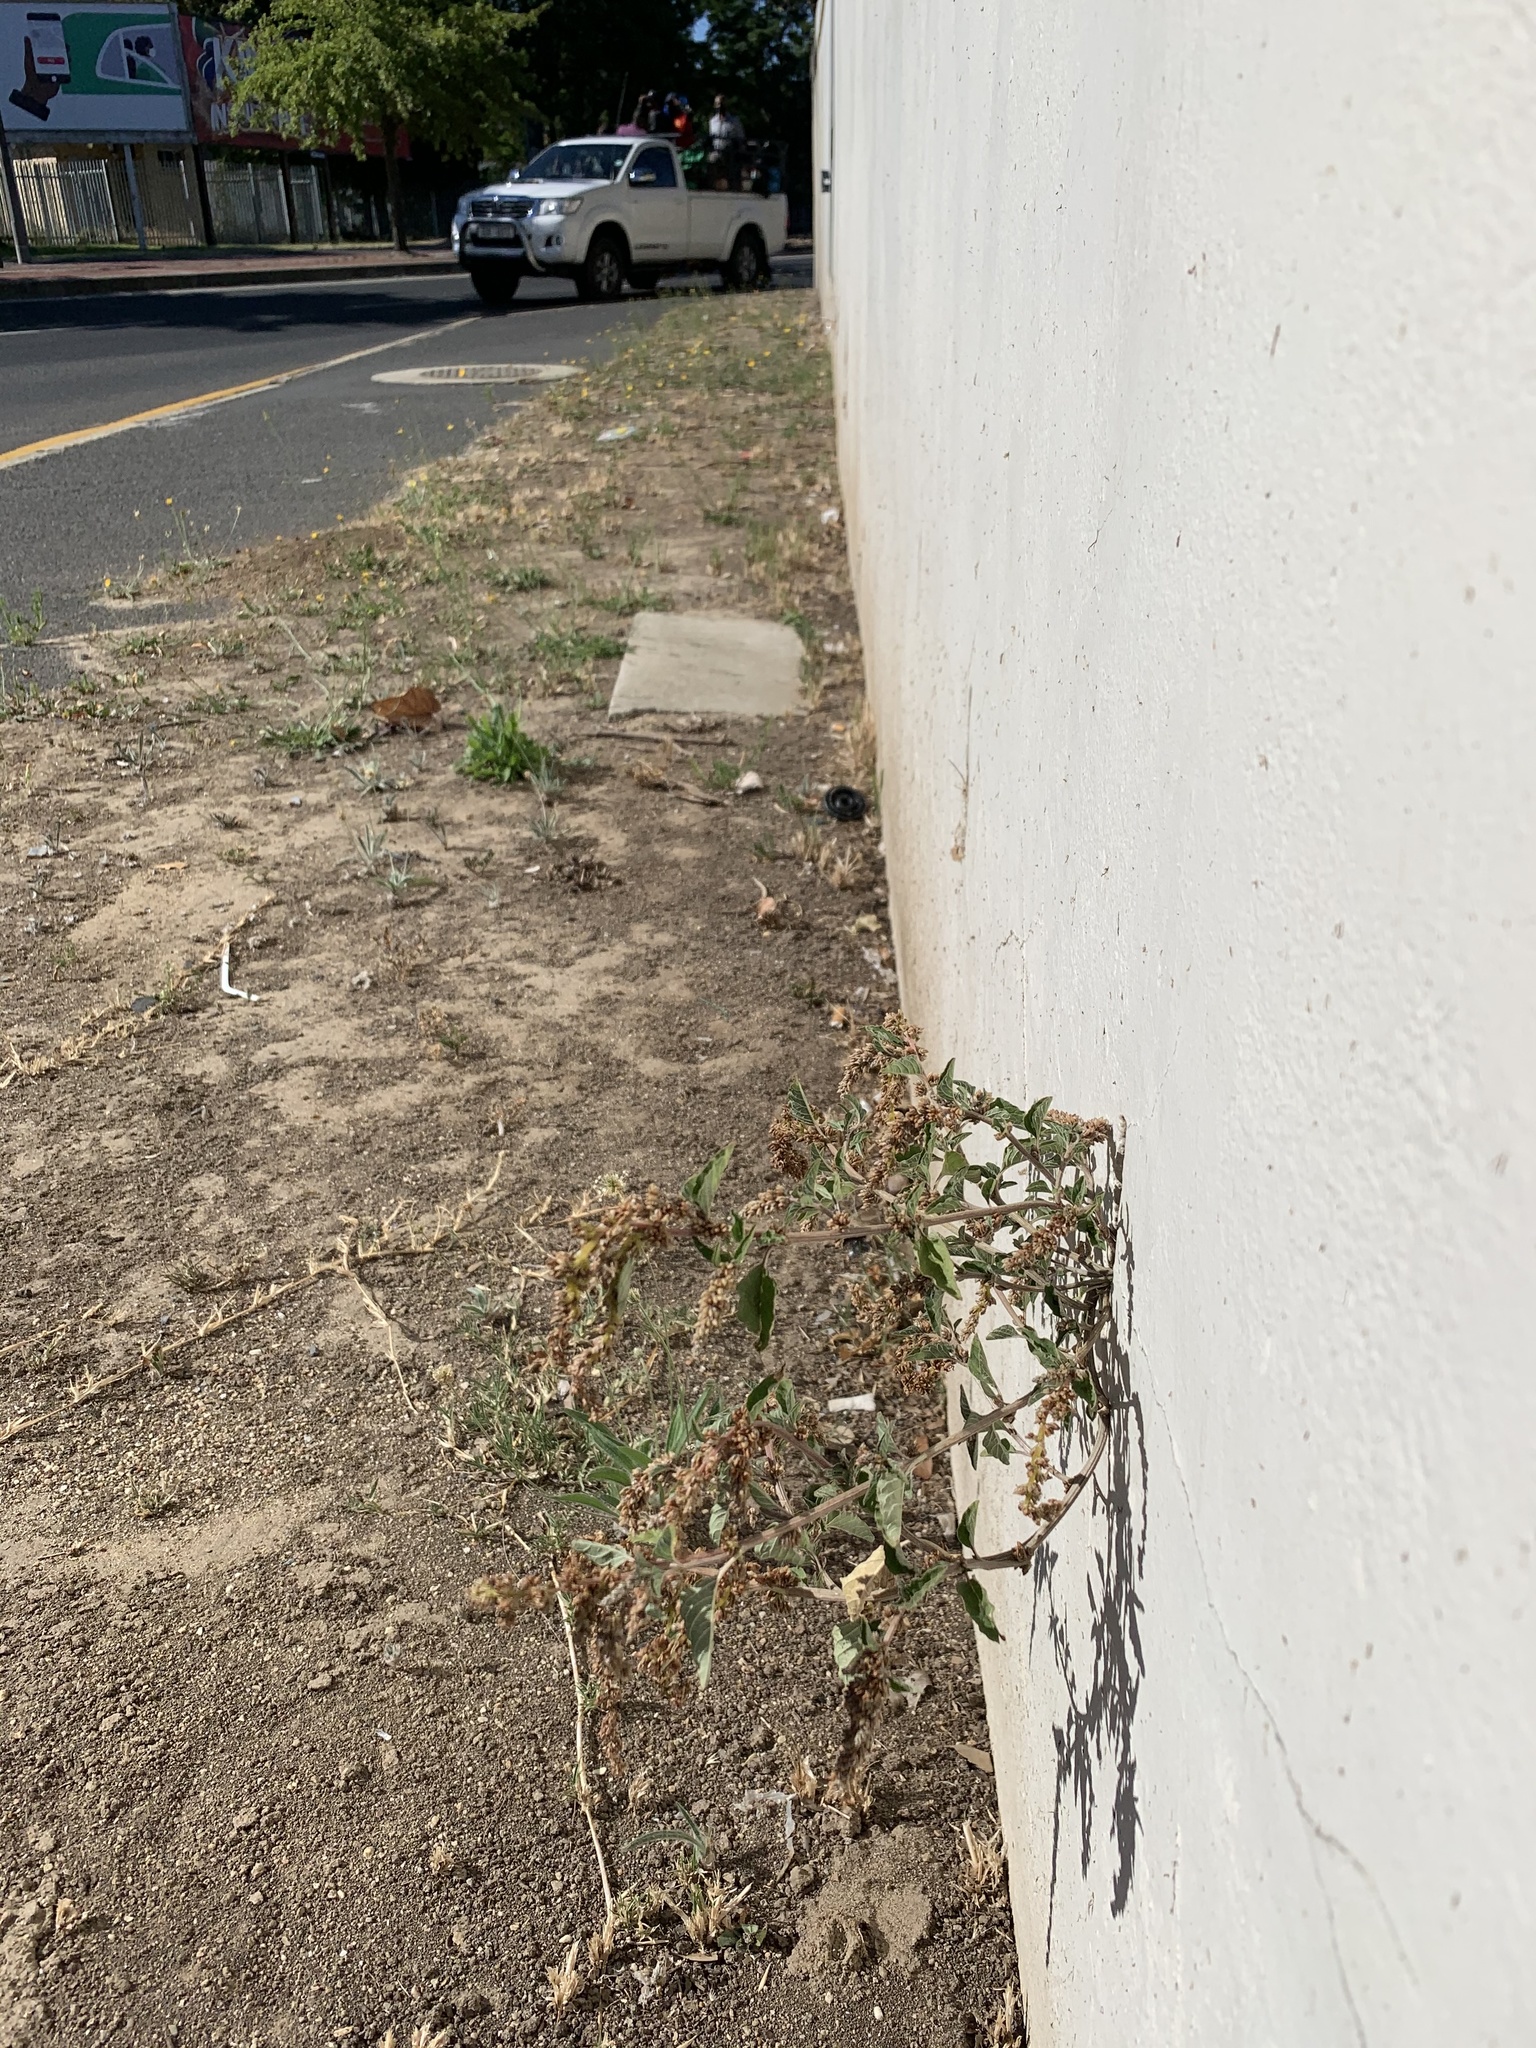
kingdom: Plantae
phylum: Tracheophyta
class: Magnoliopsida
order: Caryophyllales
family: Amaranthaceae
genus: Amaranthus
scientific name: Amaranthus deflexus
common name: Perennial pigweed
